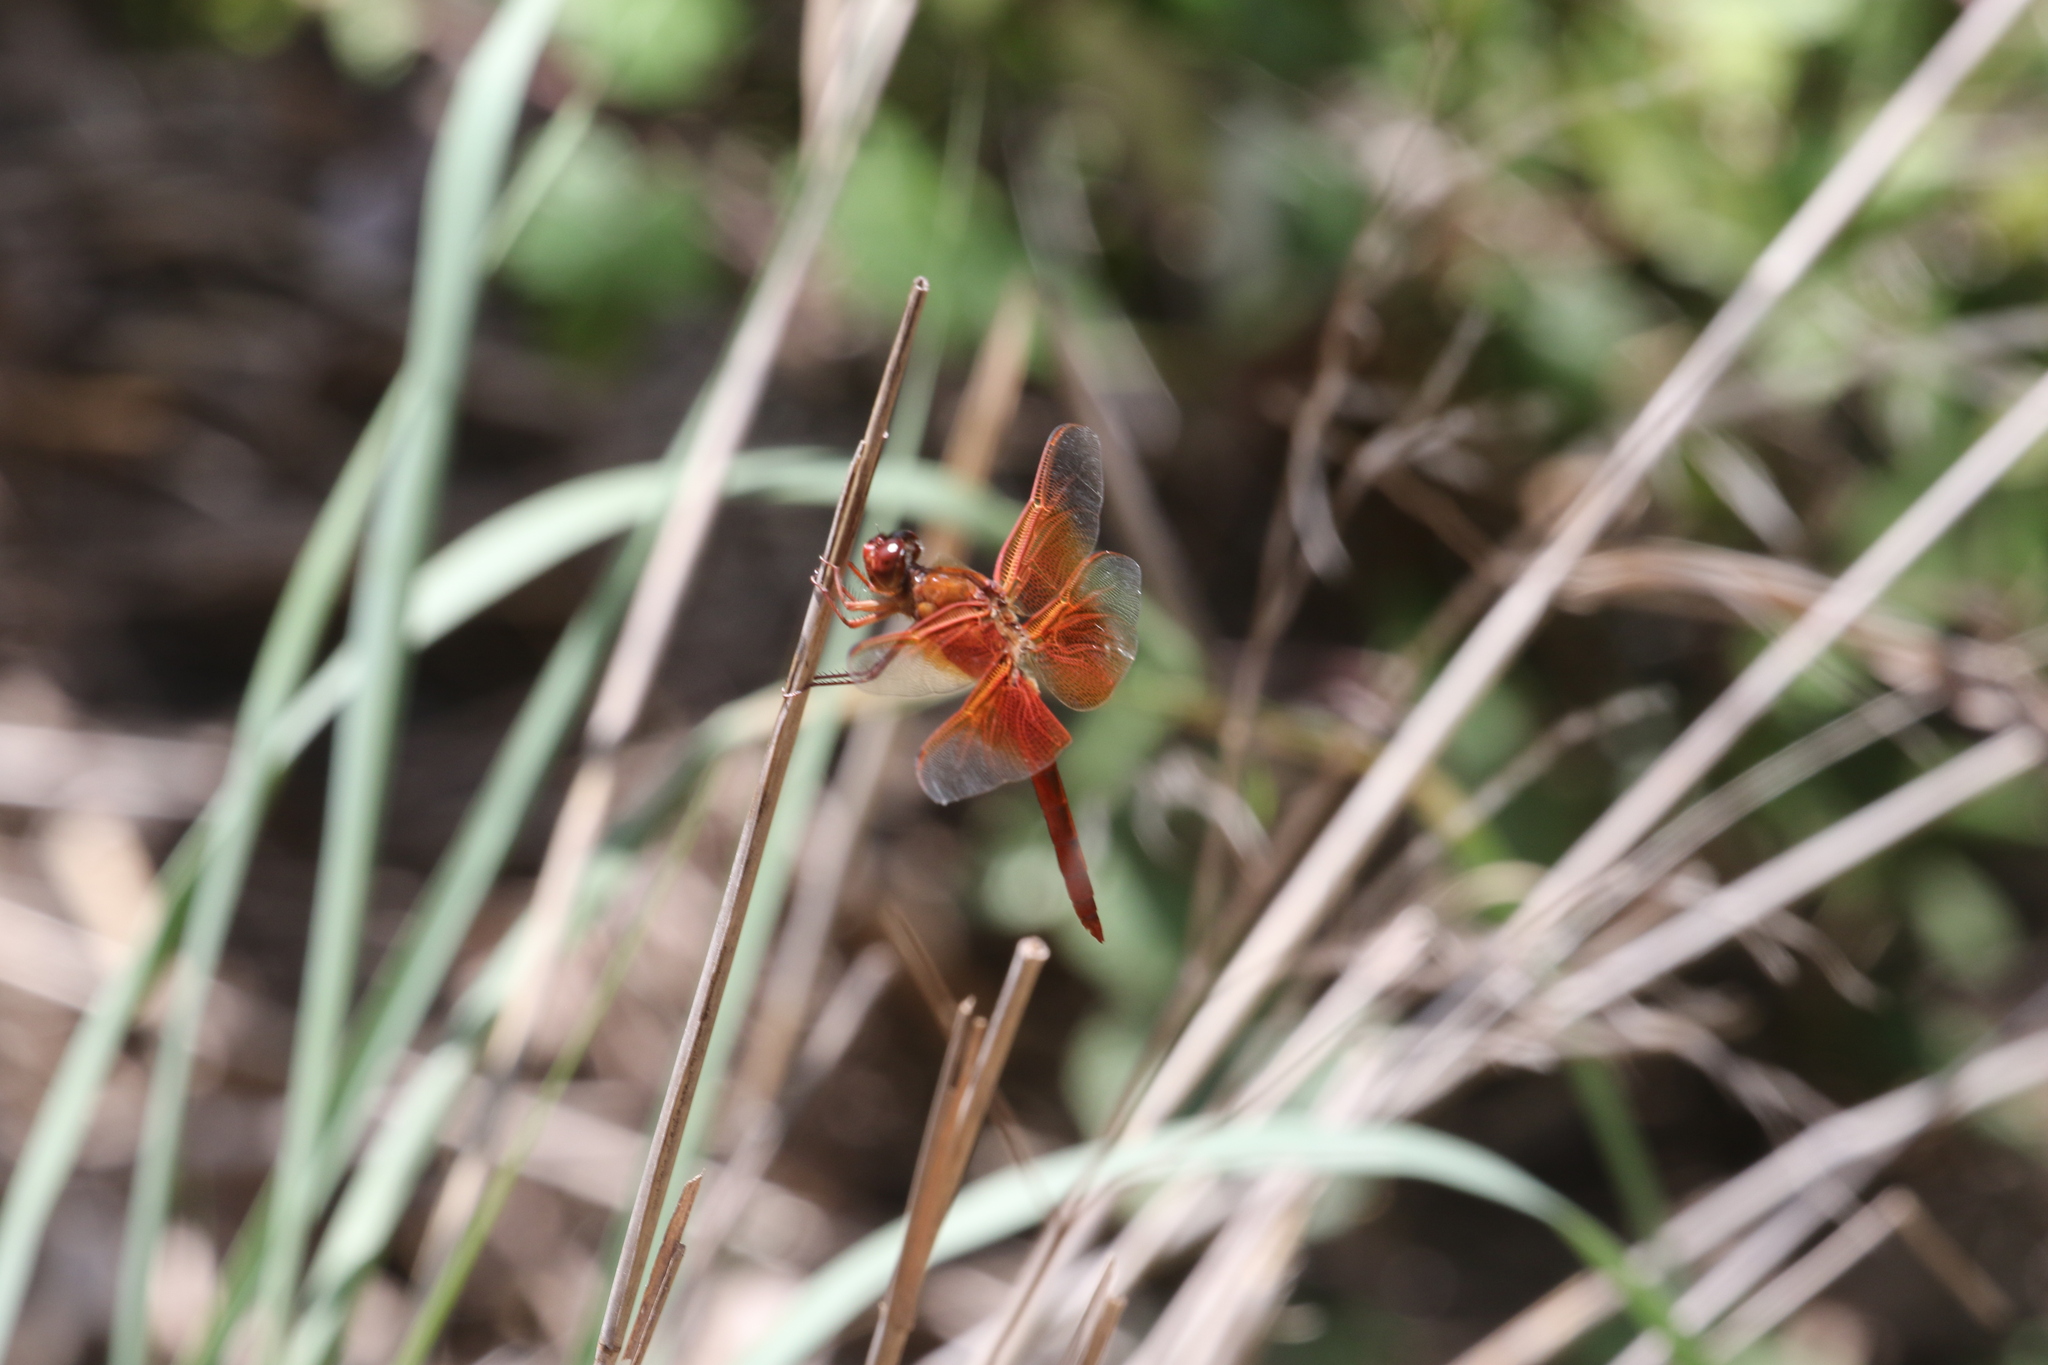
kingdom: Animalia
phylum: Arthropoda
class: Insecta
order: Odonata
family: Libellulidae
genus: Libellula
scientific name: Libellula saturata
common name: Flame skimmer
